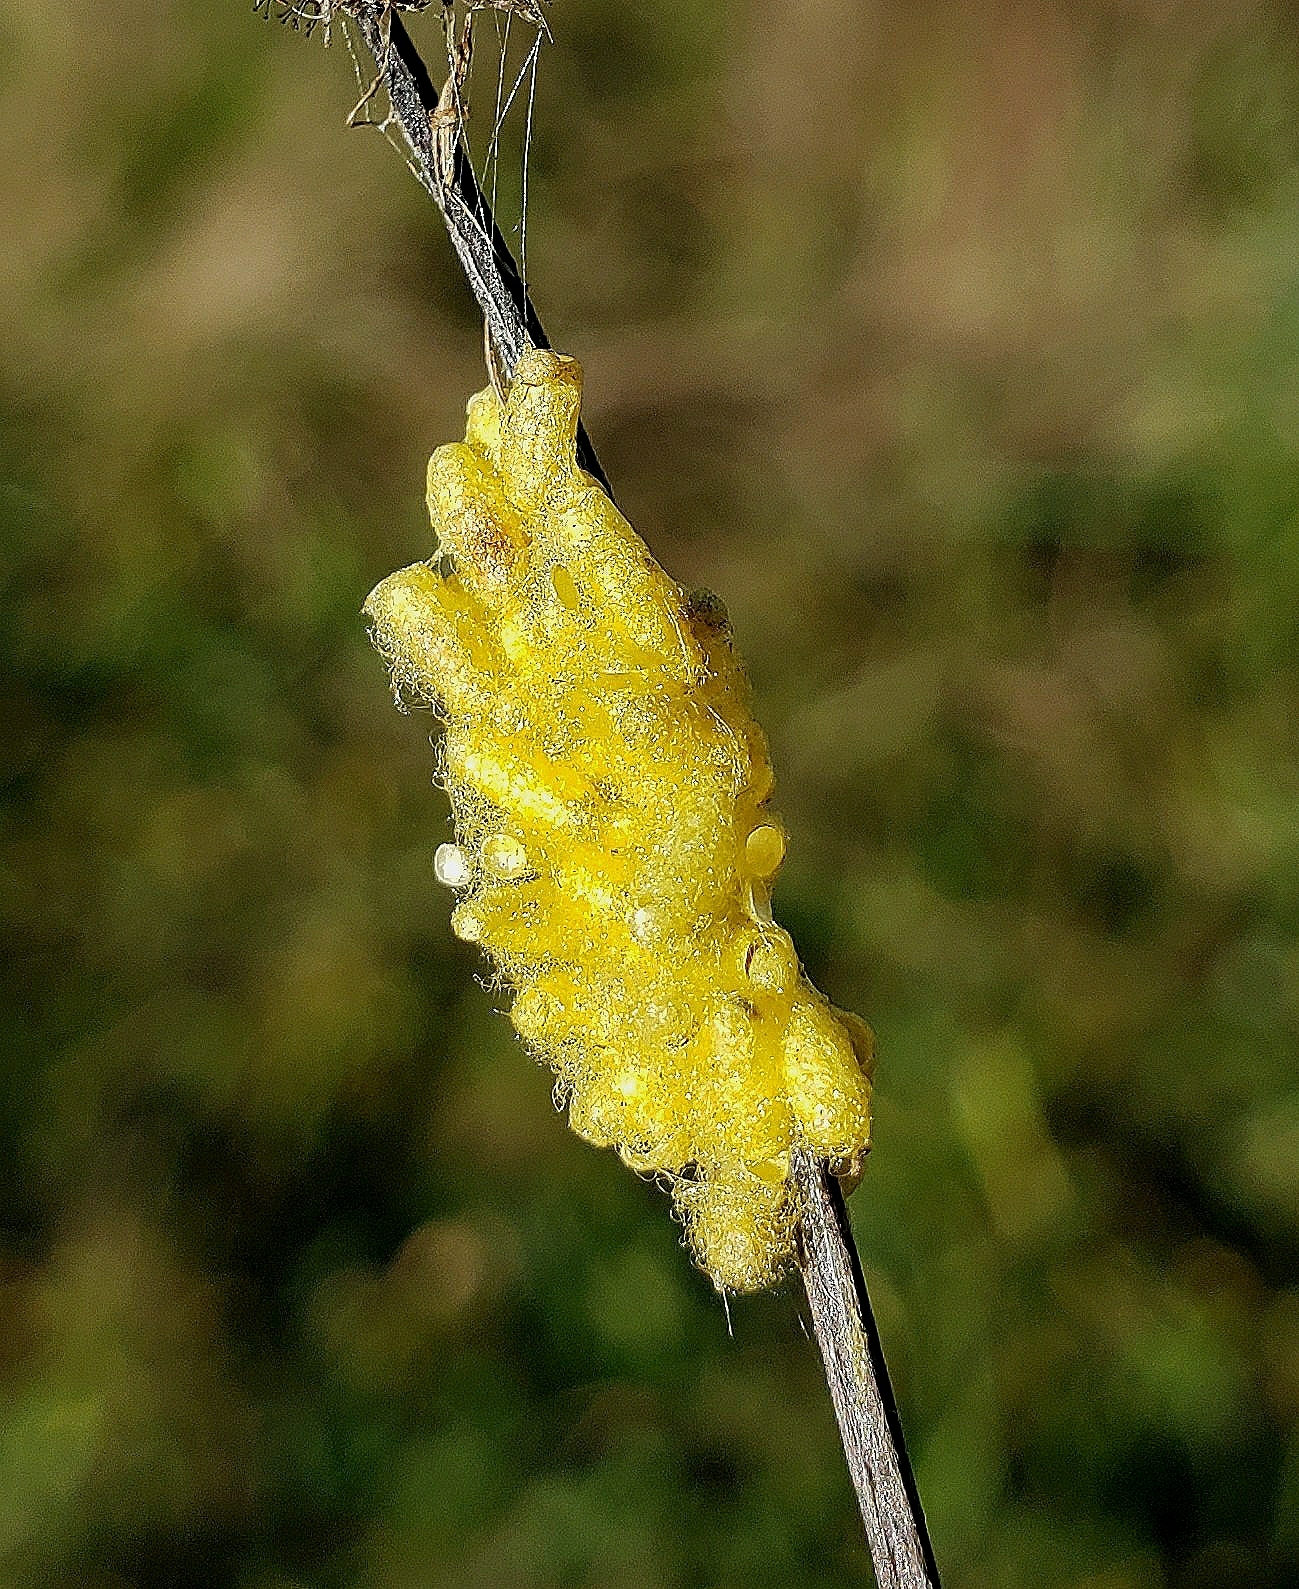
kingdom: Animalia
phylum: Arthropoda
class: Insecta
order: Hymenoptera
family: Braconidae
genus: Cotesia
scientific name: Cotesia glomerata
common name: Parasitoid wasp
